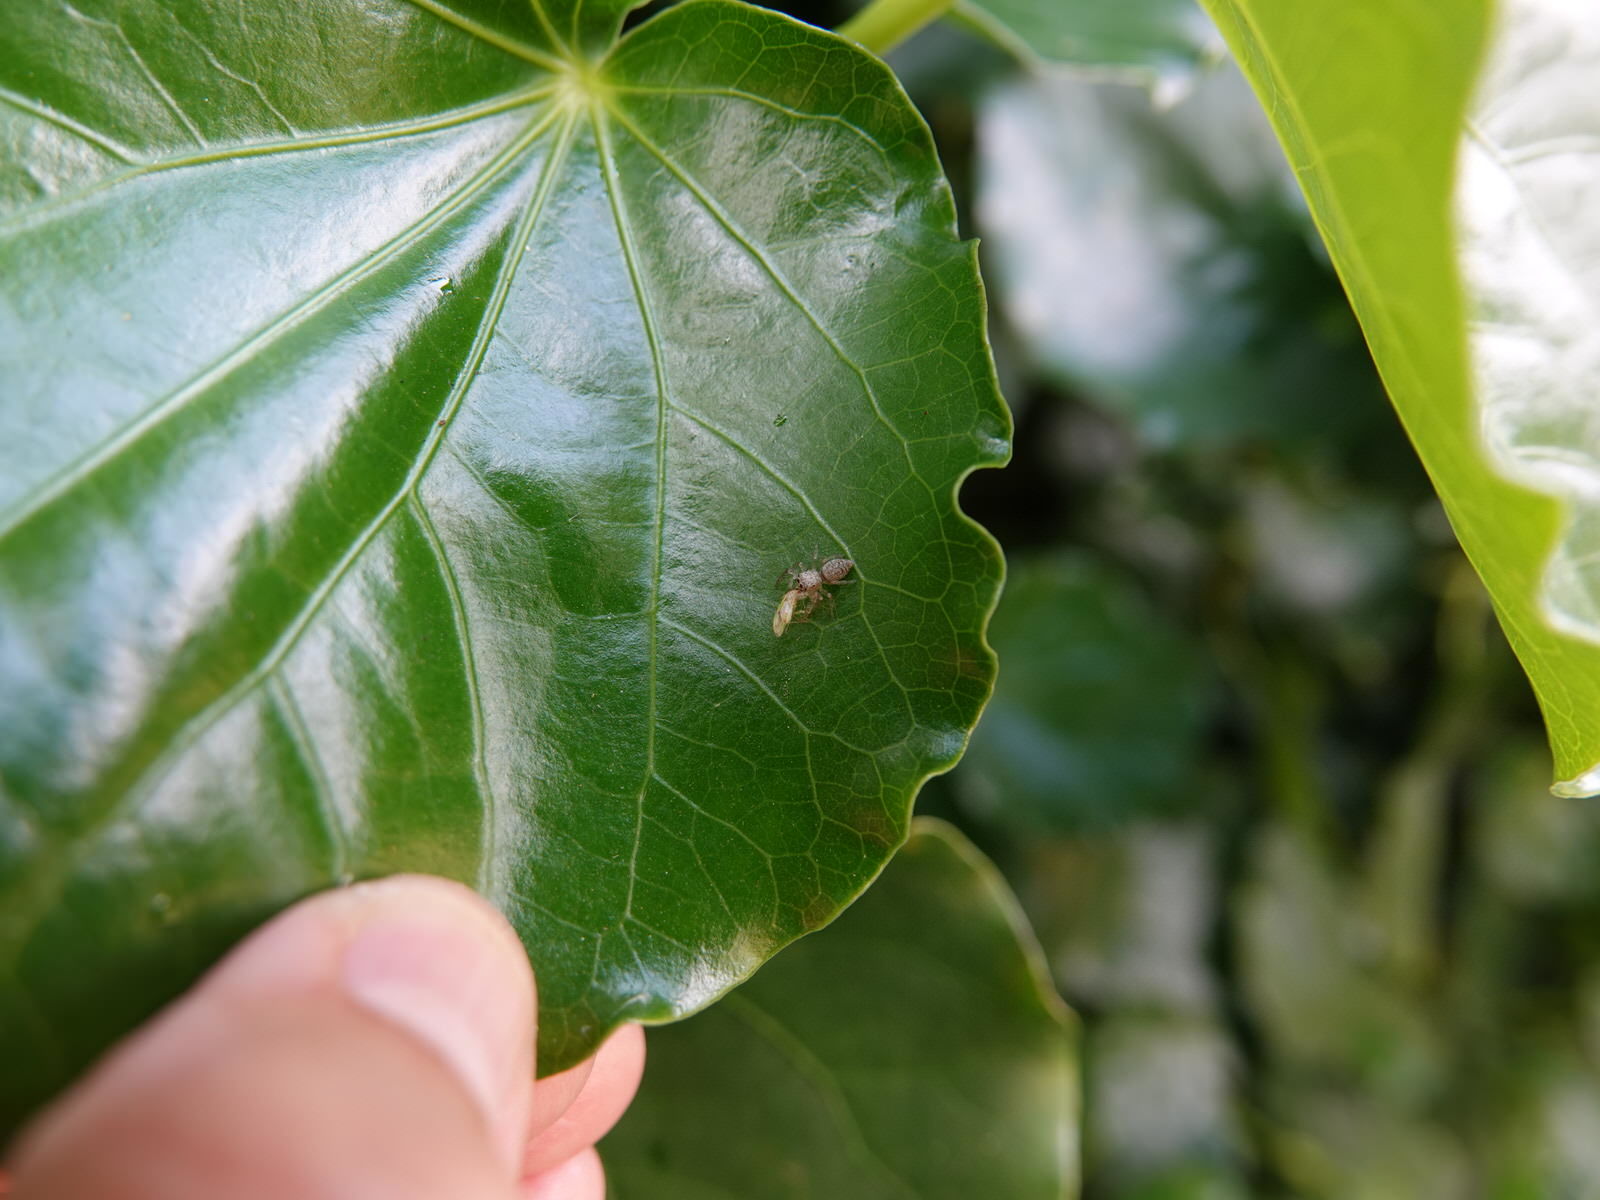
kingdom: Animalia
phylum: Arthropoda
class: Arachnida
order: Araneae
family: Salticidae
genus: Opisthoncus
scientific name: Opisthoncus polyphemus
